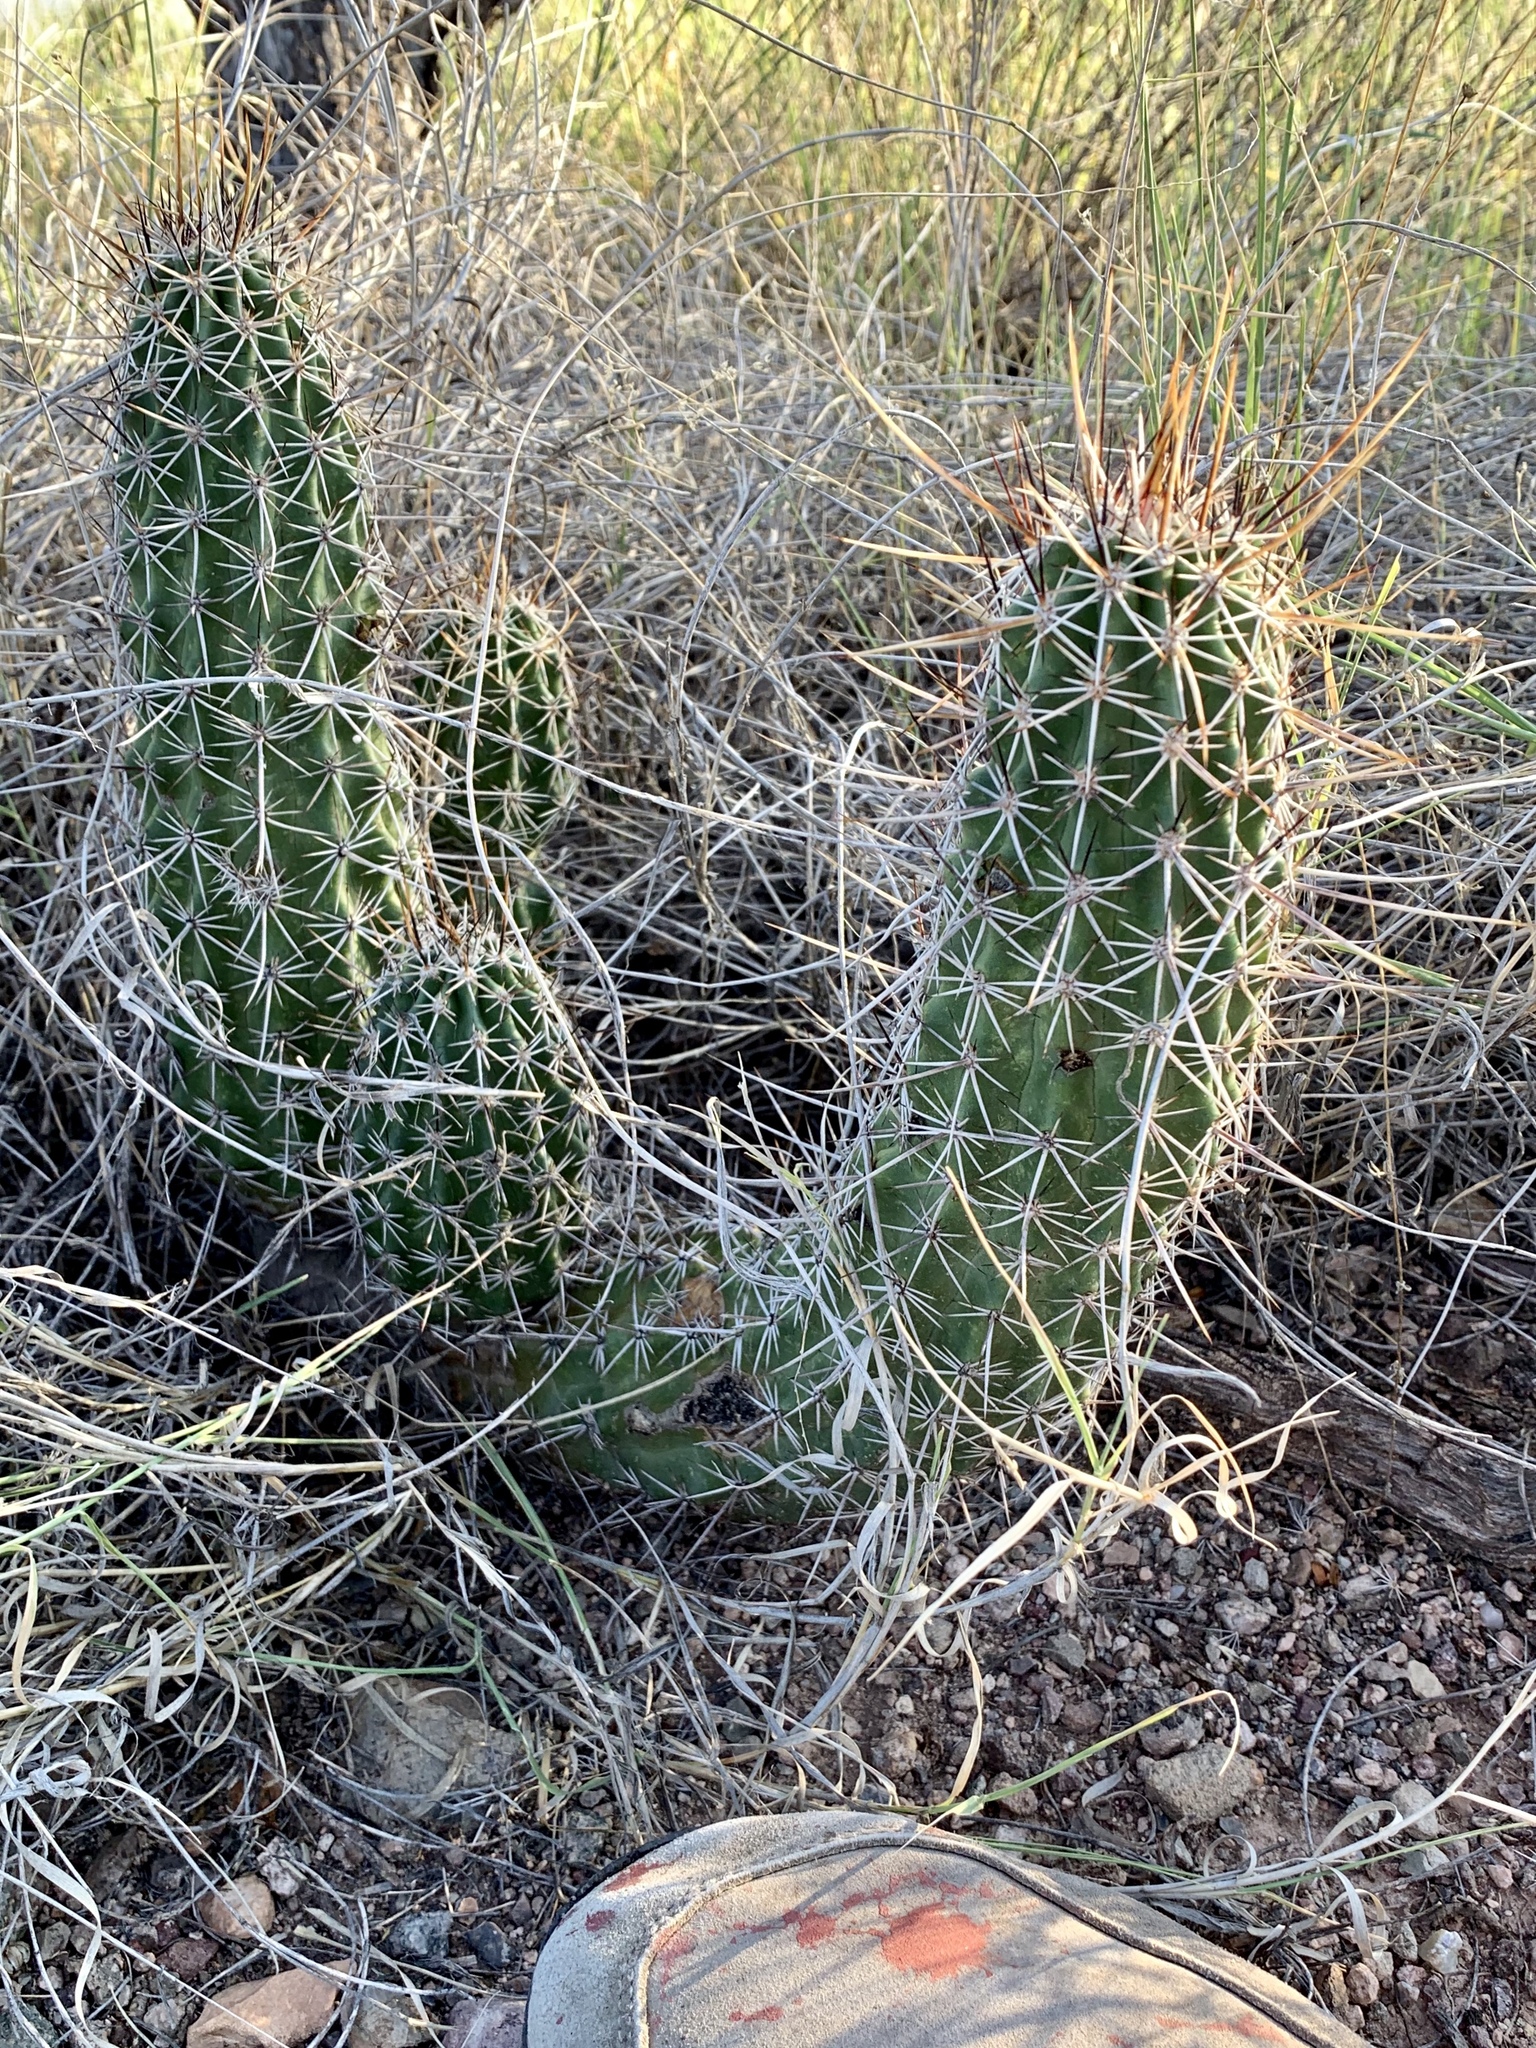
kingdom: Plantae
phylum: Tracheophyta
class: Magnoliopsida
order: Caryophyllales
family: Cactaceae
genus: Echinocereus
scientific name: Echinocereus fasciculatus
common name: Bundle hedgehog
